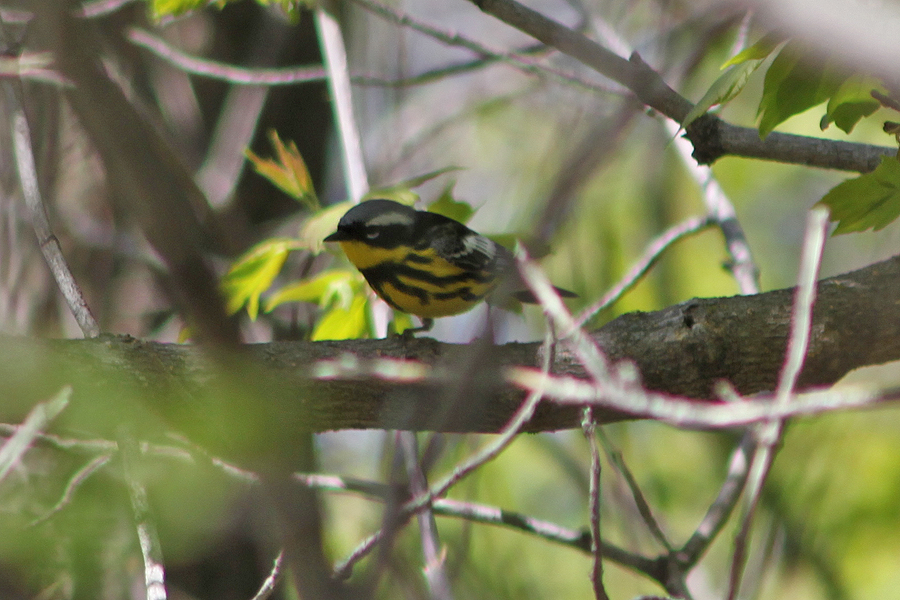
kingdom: Animalia
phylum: Chordata
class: Aves
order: Passeriformes
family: Parulidae
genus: Setophaga
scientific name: Setophaga magnolia
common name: Magnolia warbler
